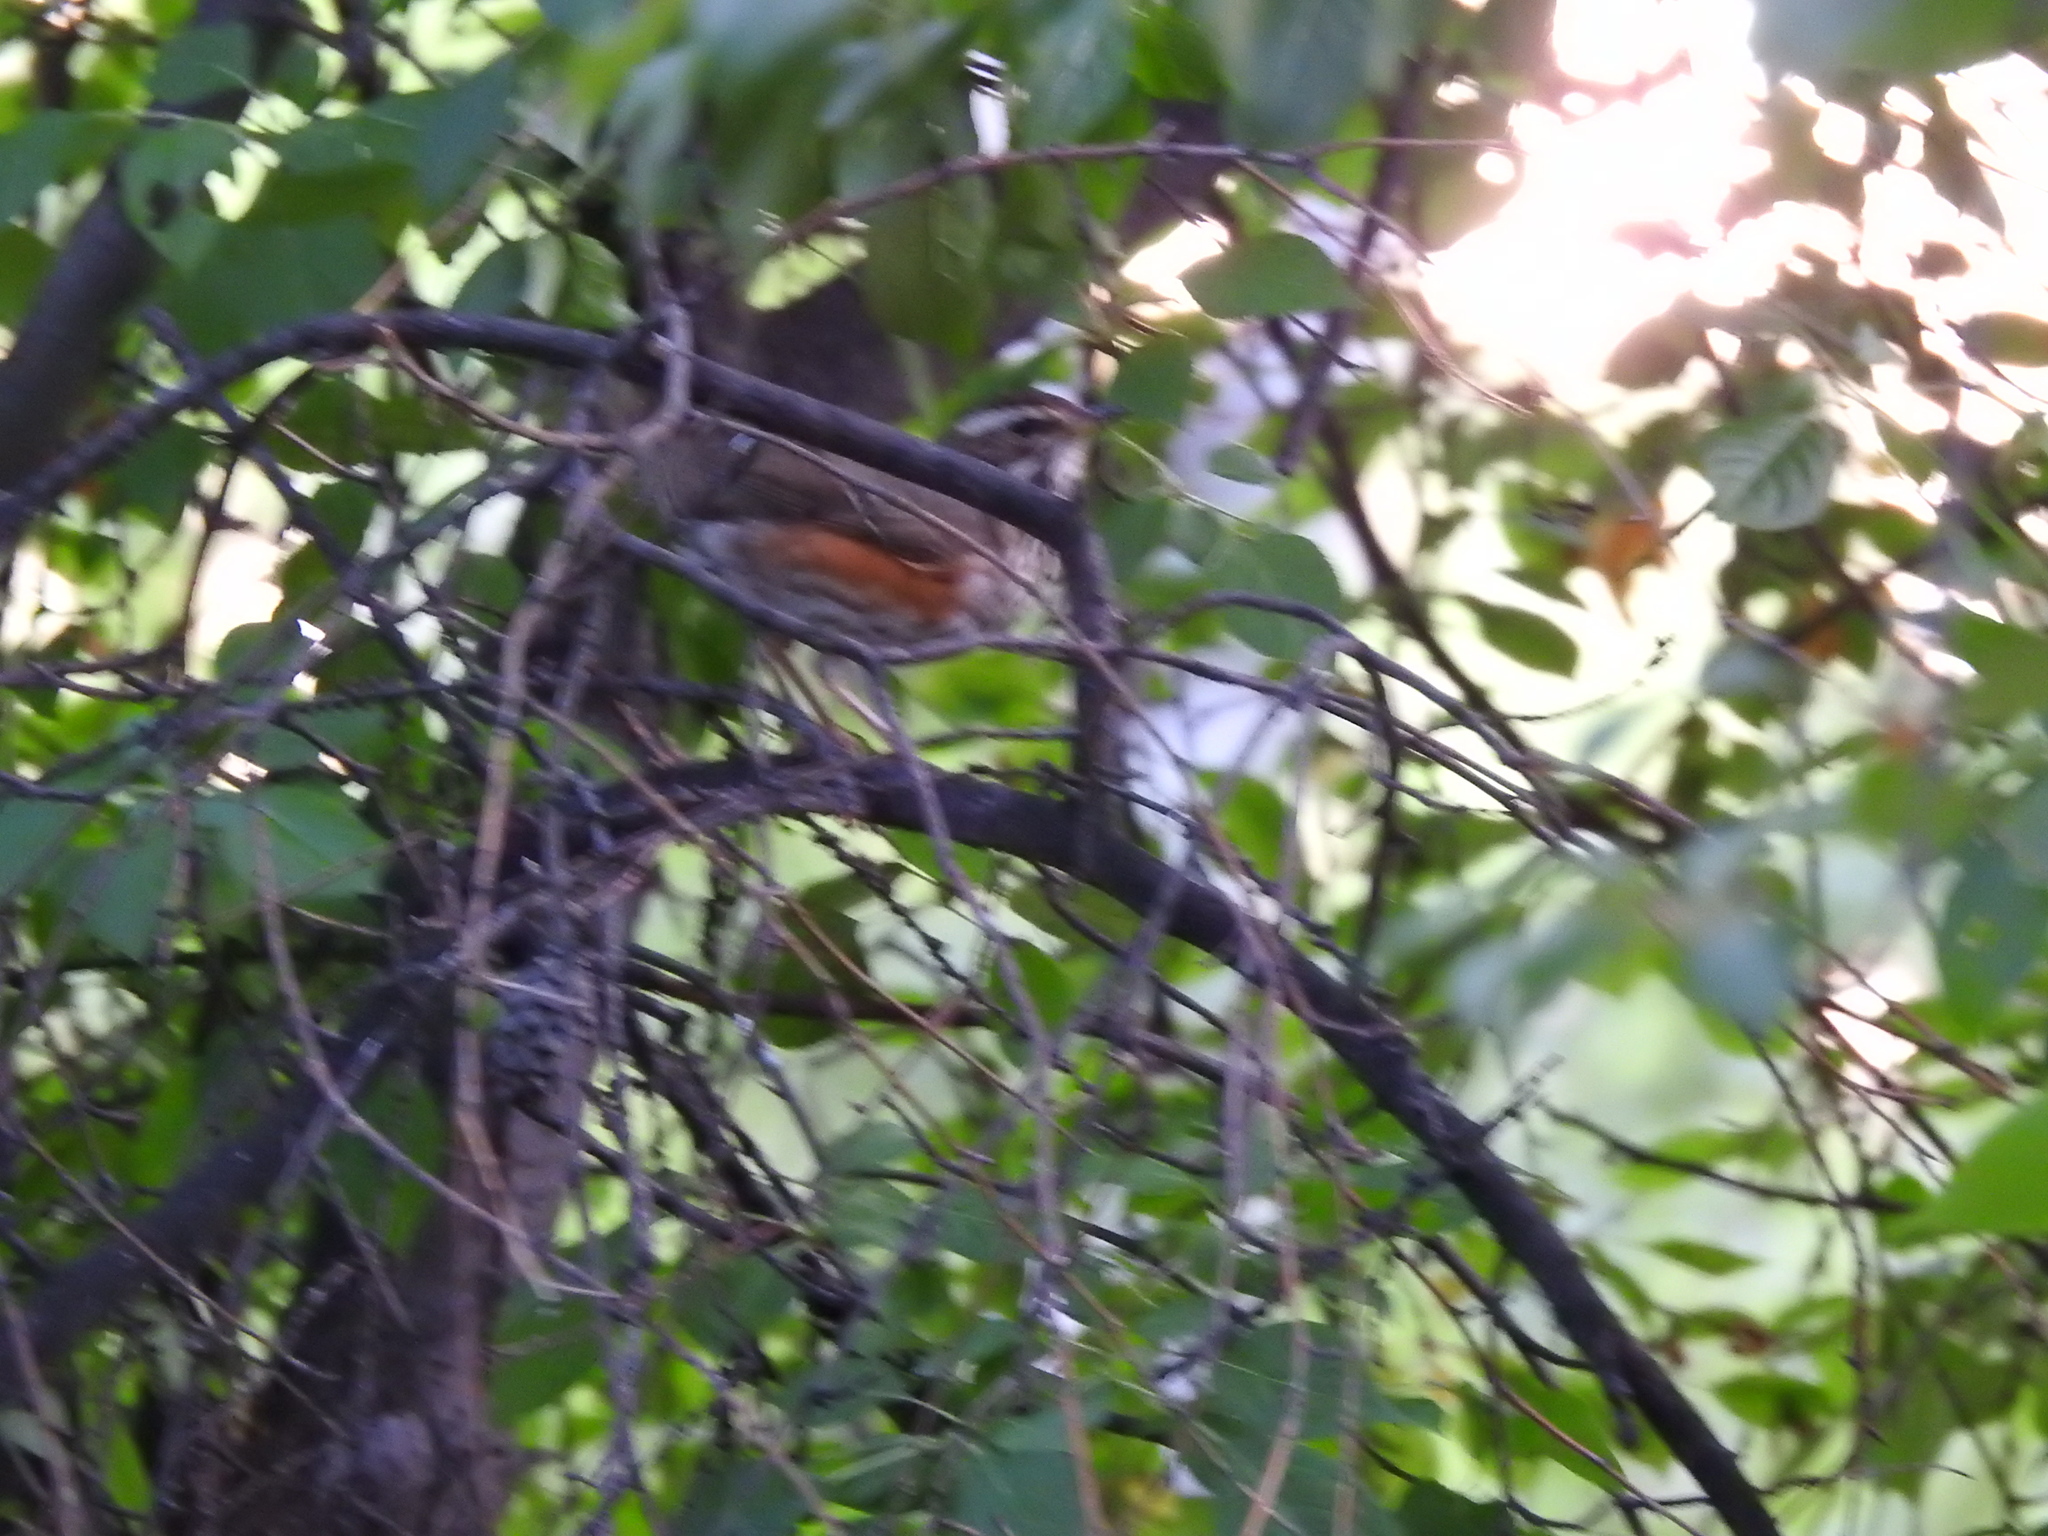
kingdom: Animalia
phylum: Chordata
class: Aves
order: Passeriformes
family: Turdidae
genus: Turdus
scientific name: Turdus iliacus
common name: Redwing
